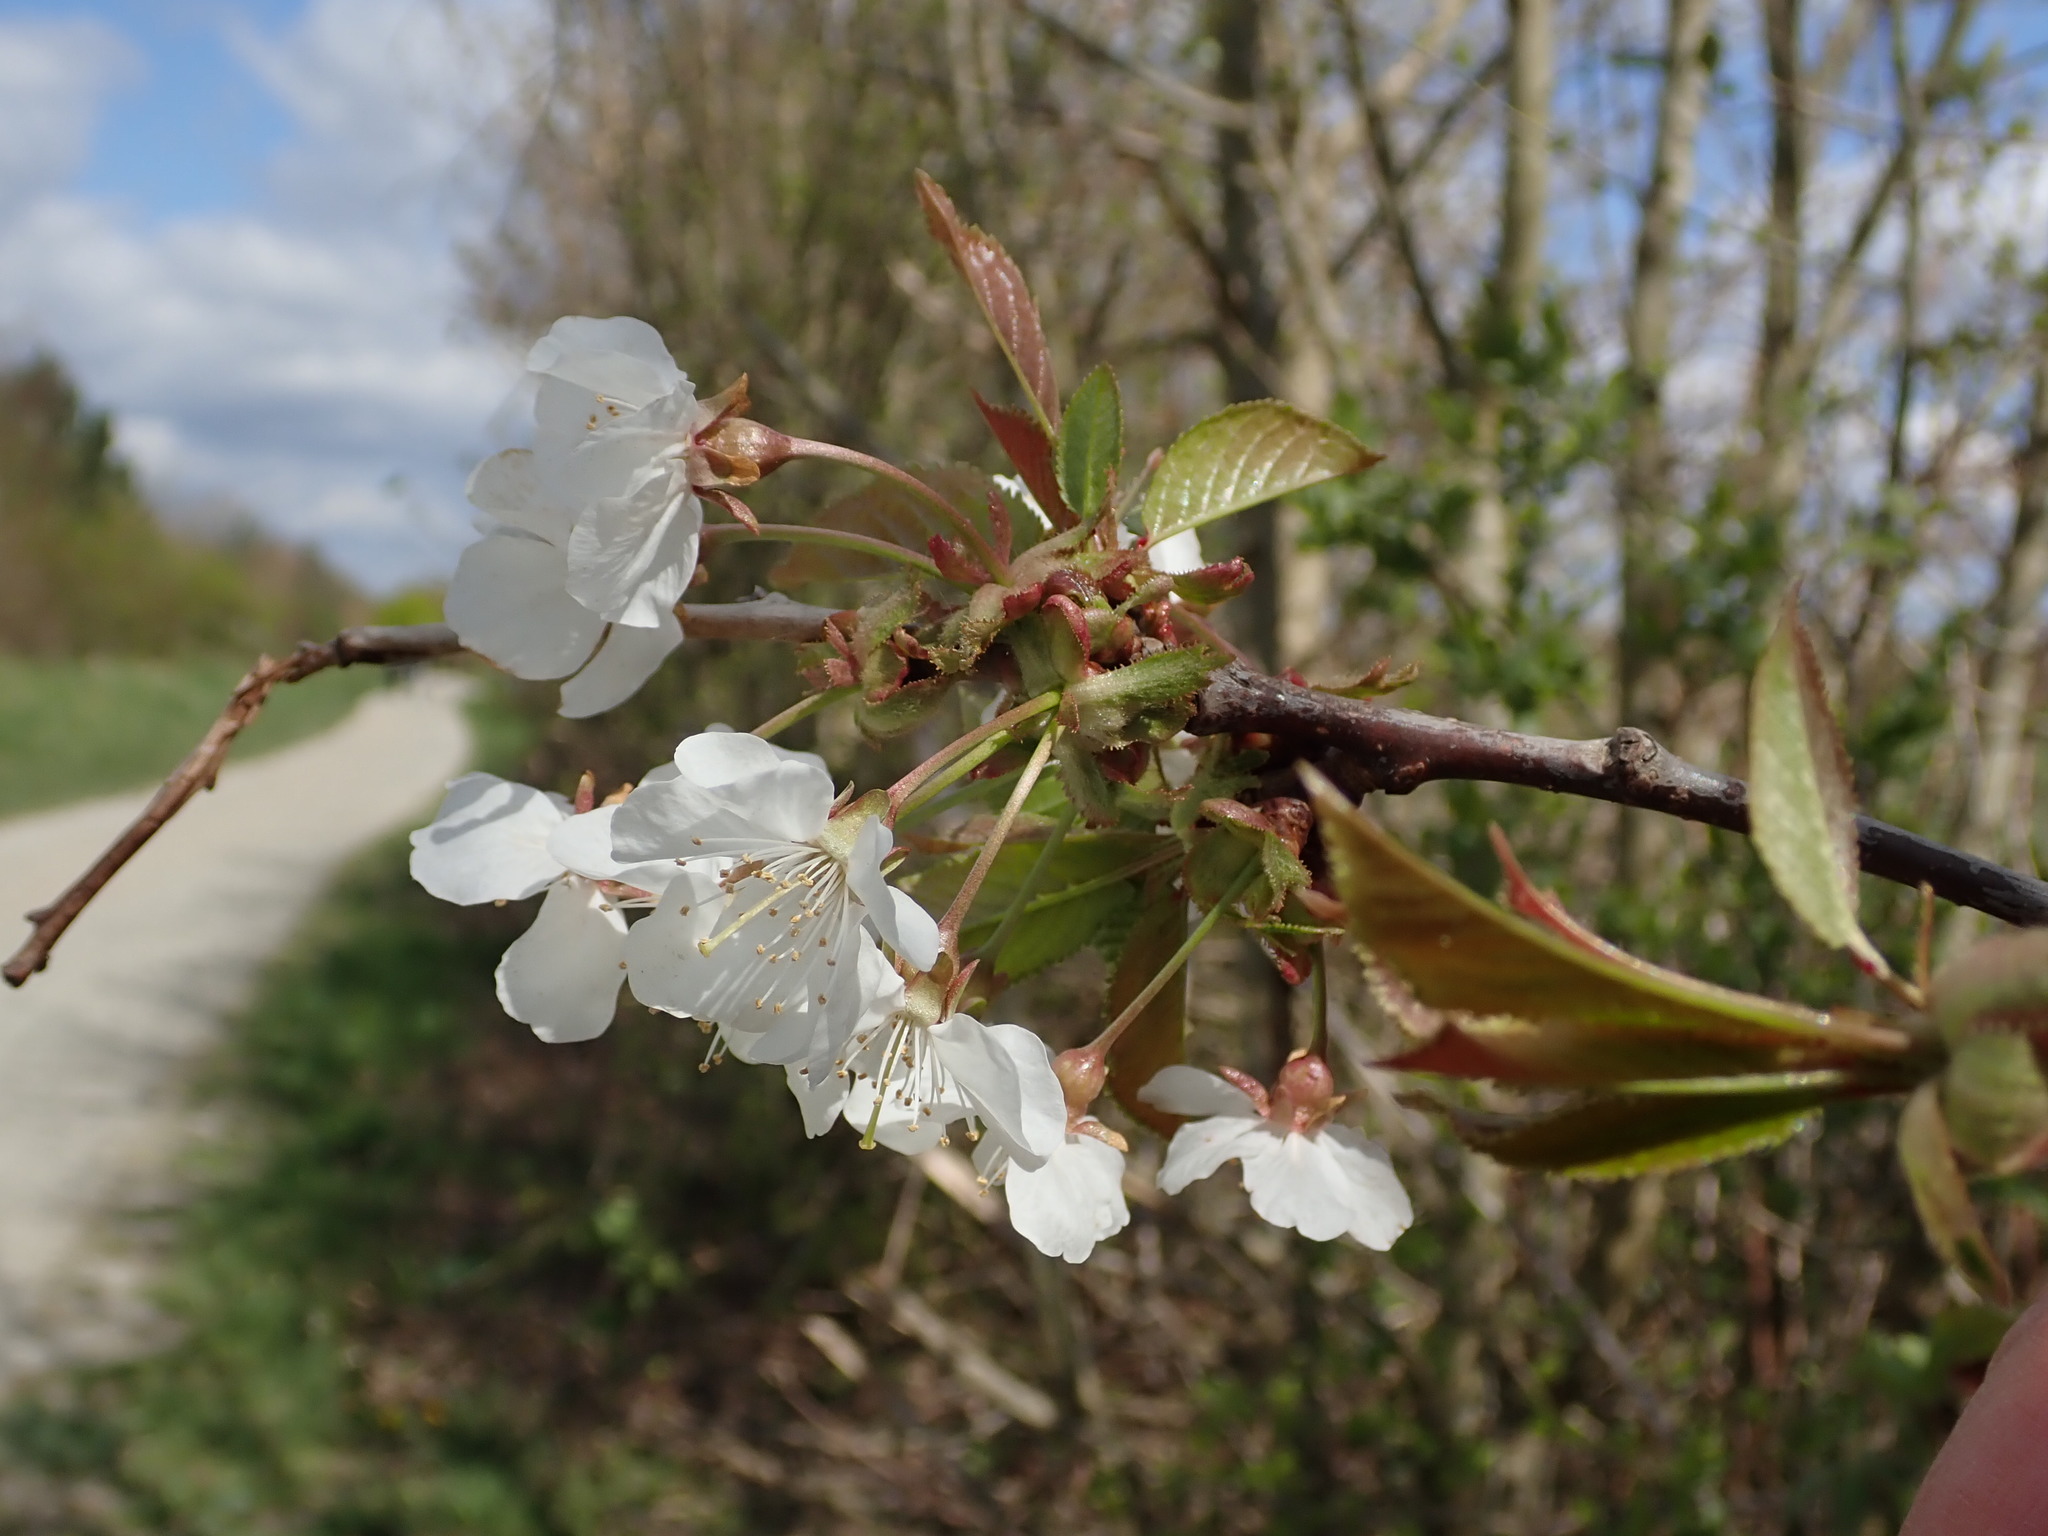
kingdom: Plantae
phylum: Tracheophyta
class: Magnoliopsida
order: Rosales
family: Rosaceae
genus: Prunus
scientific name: Prunus avium
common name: Sweet cherry
